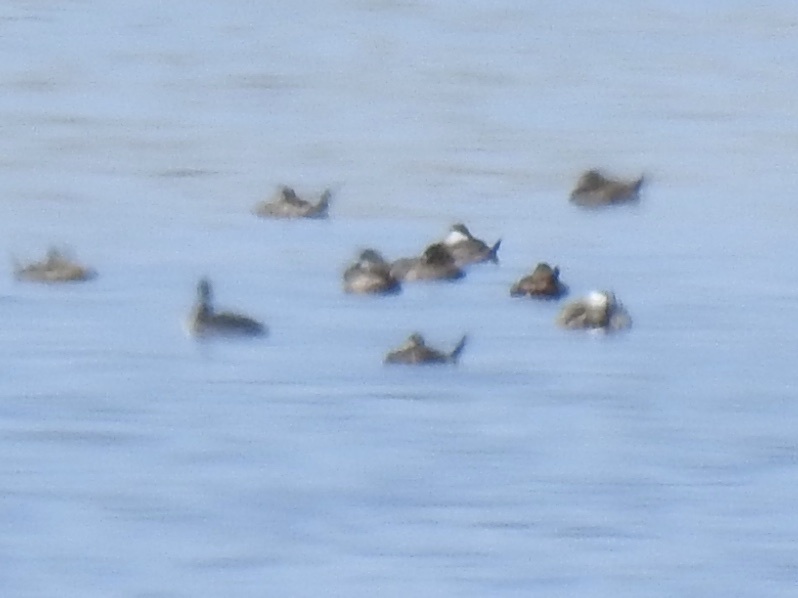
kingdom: Animalia
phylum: Chordata
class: Aves
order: Anseriformes
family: Anatidae
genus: Oxyura
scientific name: Oxyura jamaicensis
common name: Ruddy duck
